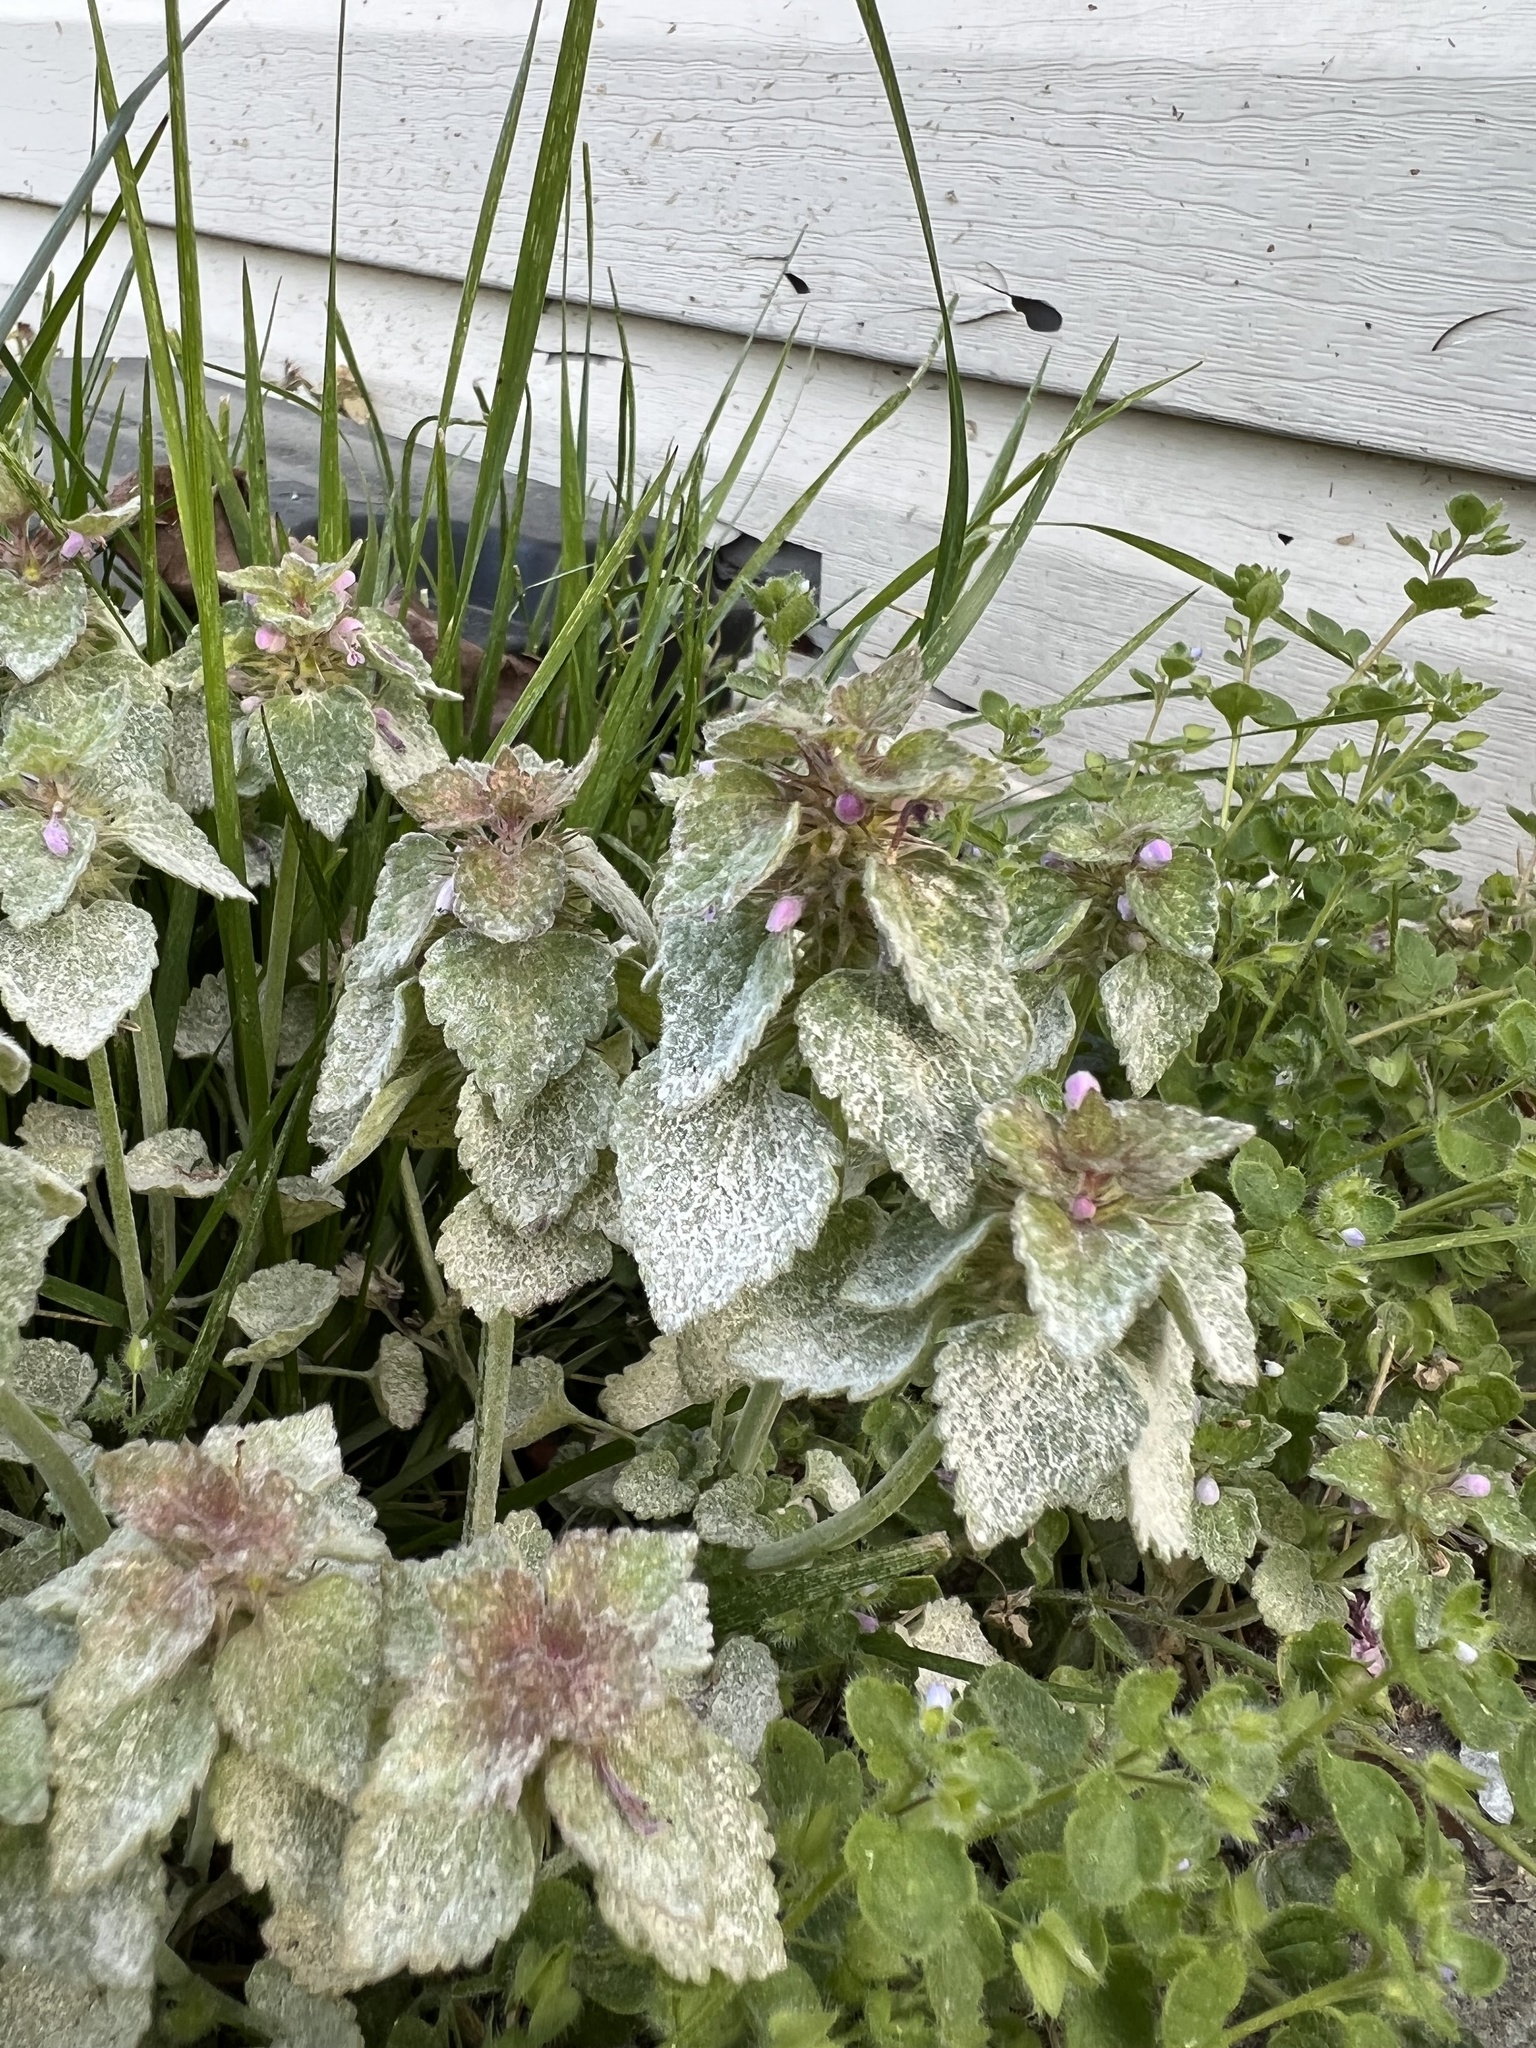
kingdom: Plantae
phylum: Tracheophyta
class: Magnoliopsida
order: Lamiales
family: Lamiaceae
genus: Lamium
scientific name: Lamium purpureum
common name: Red dead-nettle
